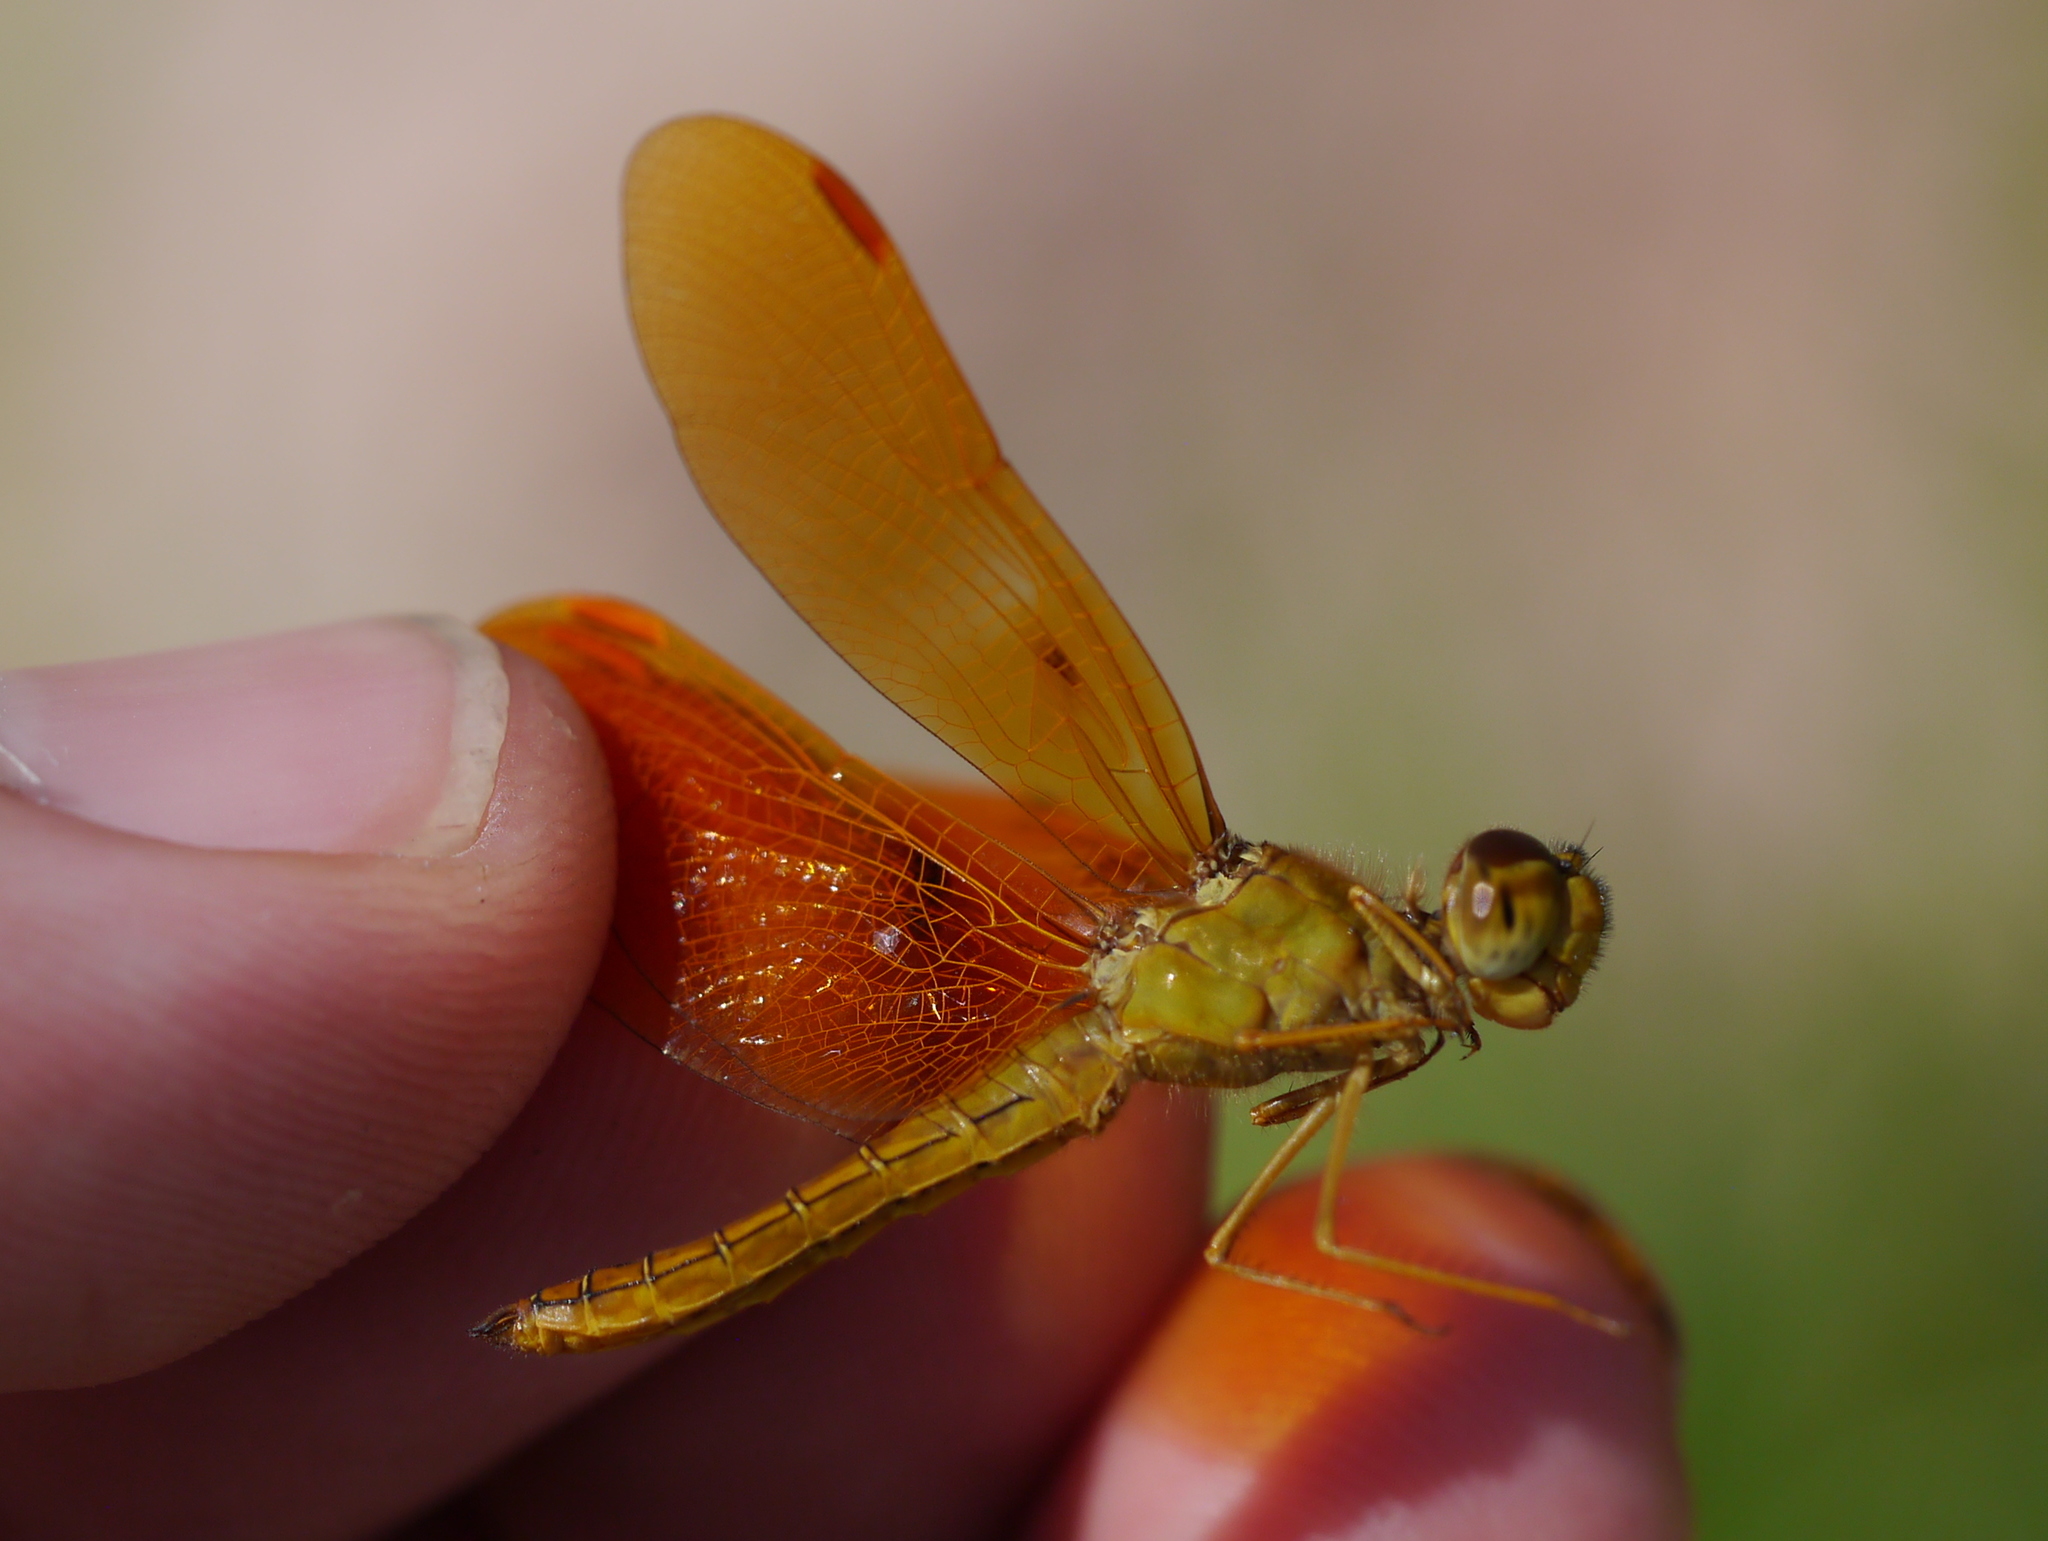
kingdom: Animalia
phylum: Arthropoda
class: Insecta
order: Odonata
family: Libellulidae
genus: Perithemis
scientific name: Perithemis intensa
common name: Mexican amberwing
